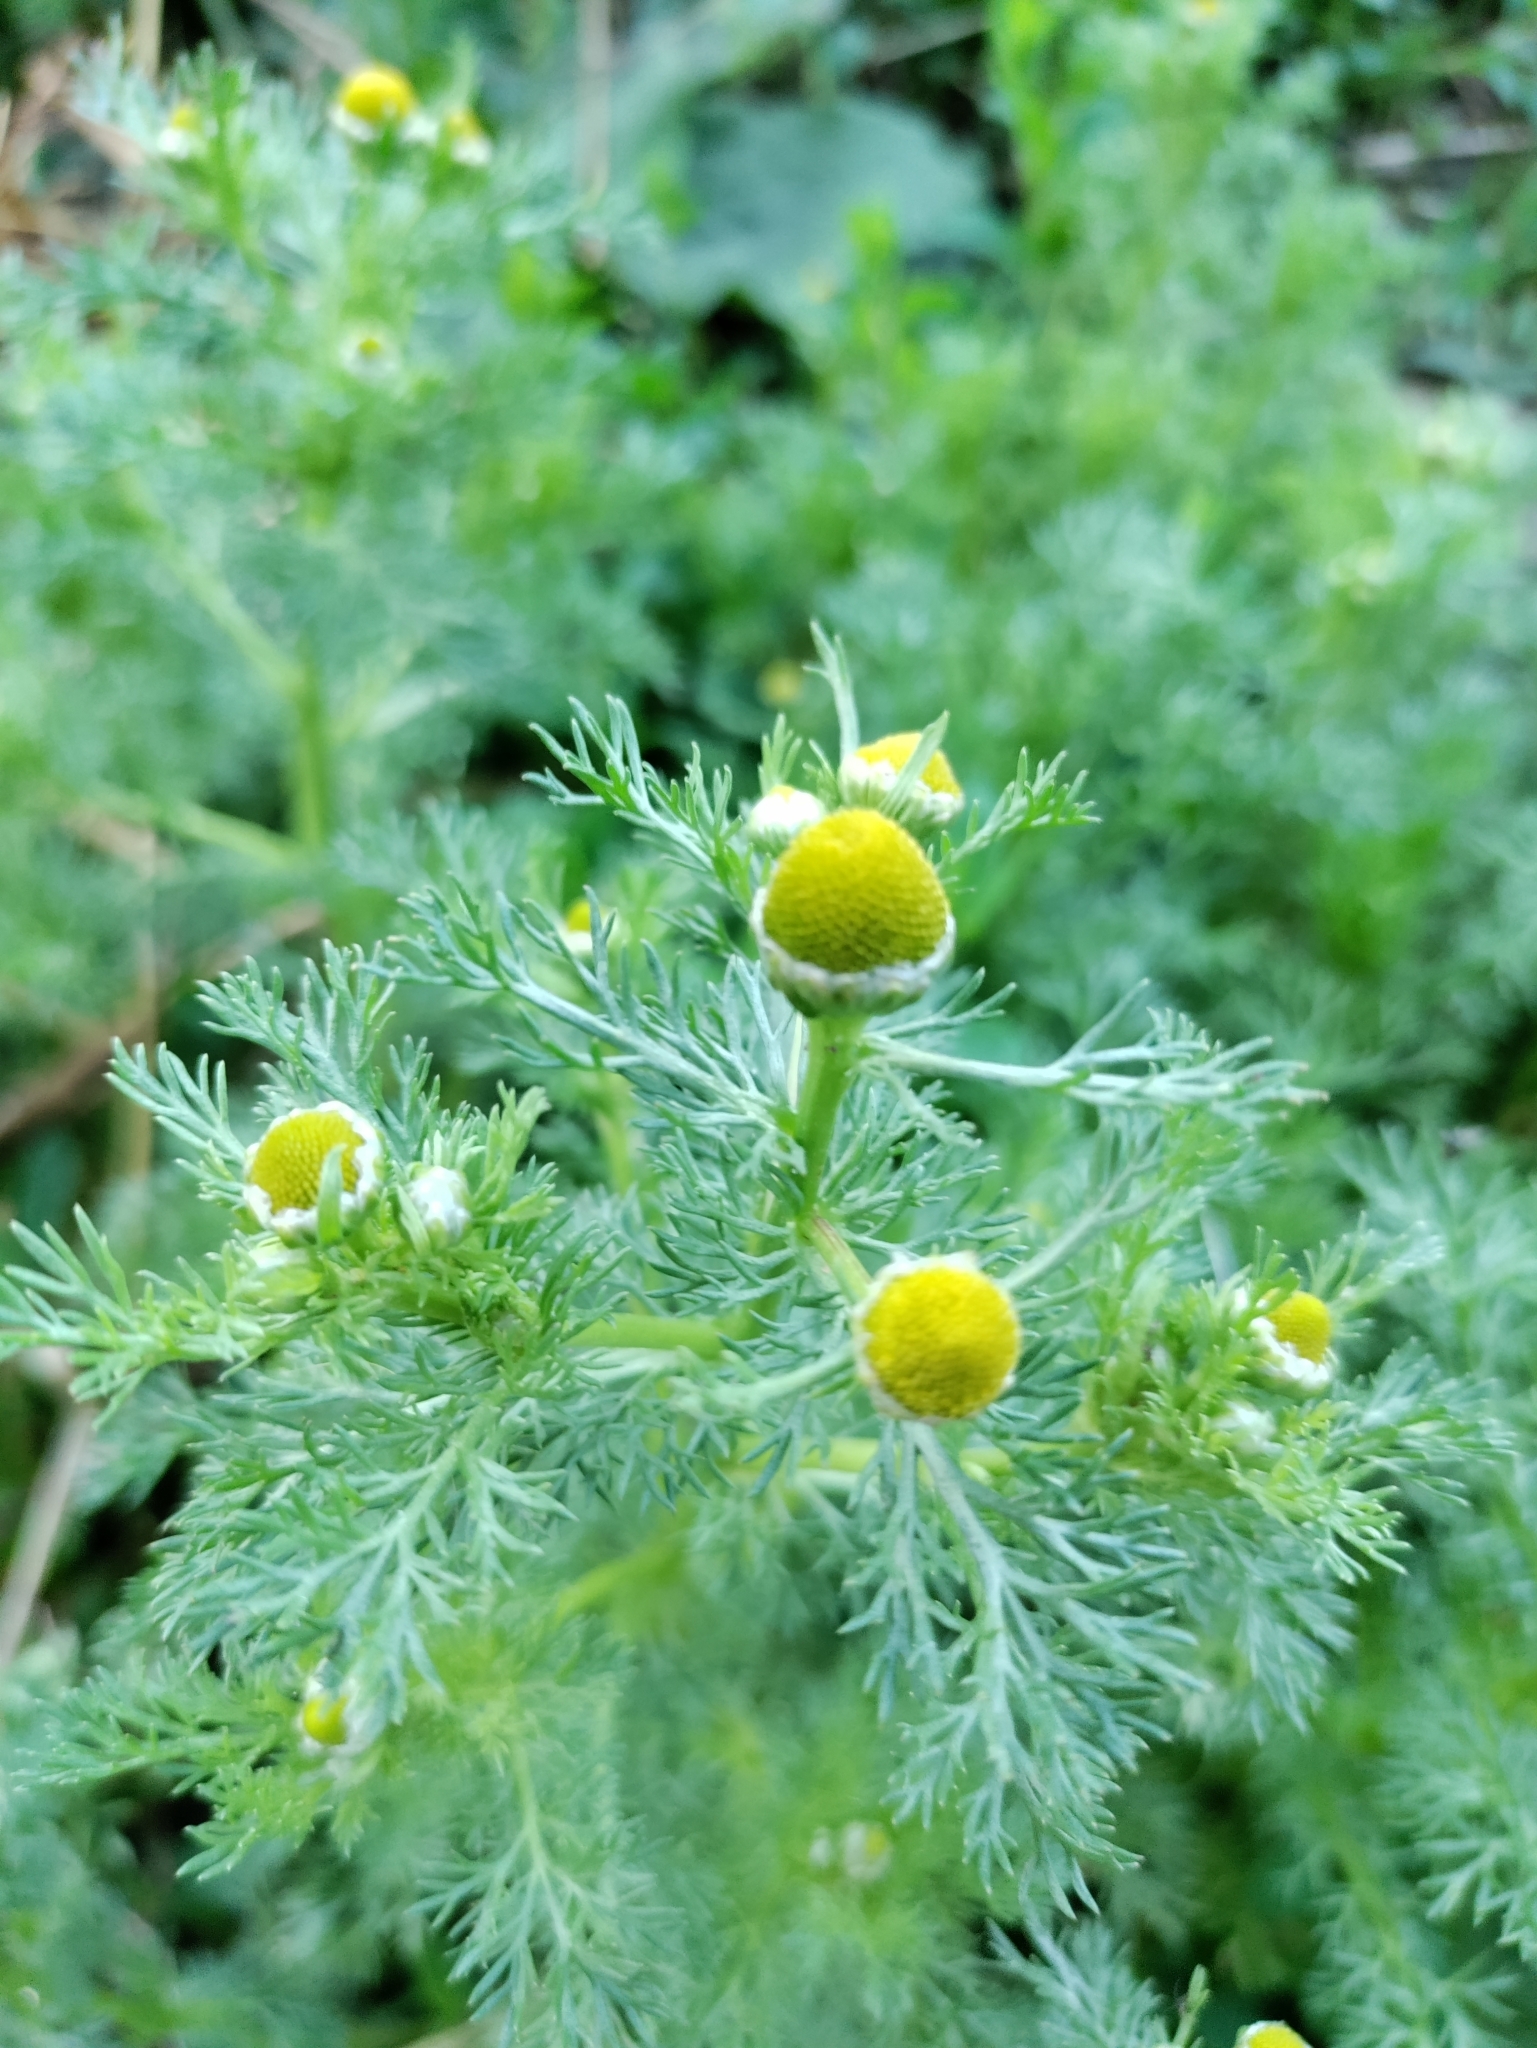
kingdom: Plantae
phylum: Tracheophyta
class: Magnoliopsida
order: Asterales
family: Asteraceae
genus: Matricaria
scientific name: Matricaria discoidea
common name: Disc mayweed
